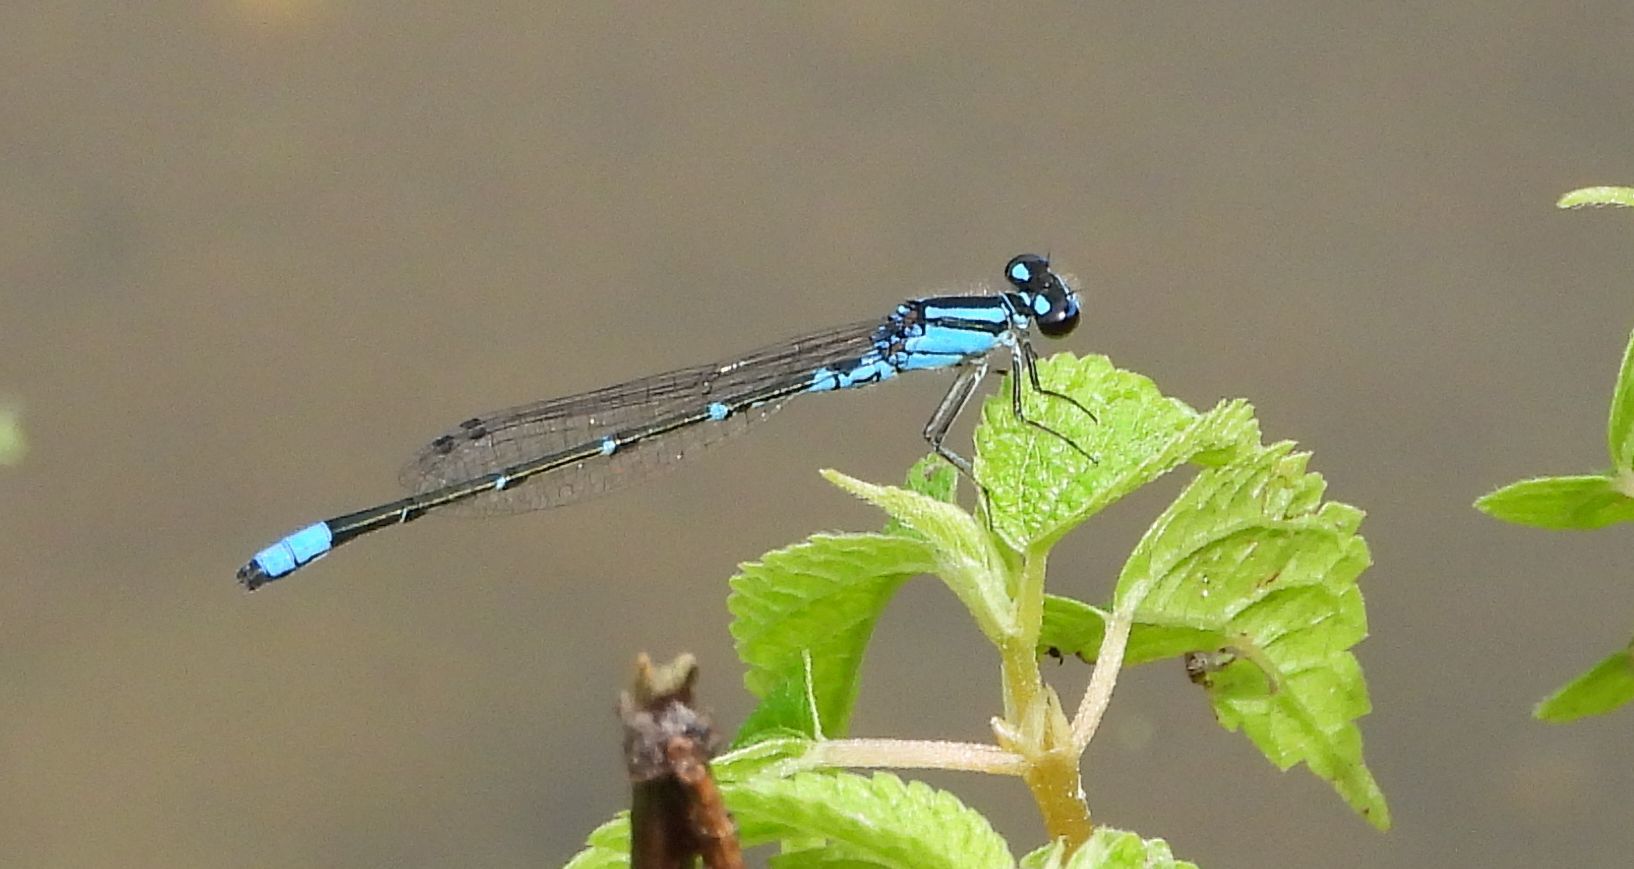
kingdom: Animalia
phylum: Arthropoda
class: Insecta
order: Odonata
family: Coenagrionidae
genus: Enallagma
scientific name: Enallagma geminatum
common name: Skimming bluet
